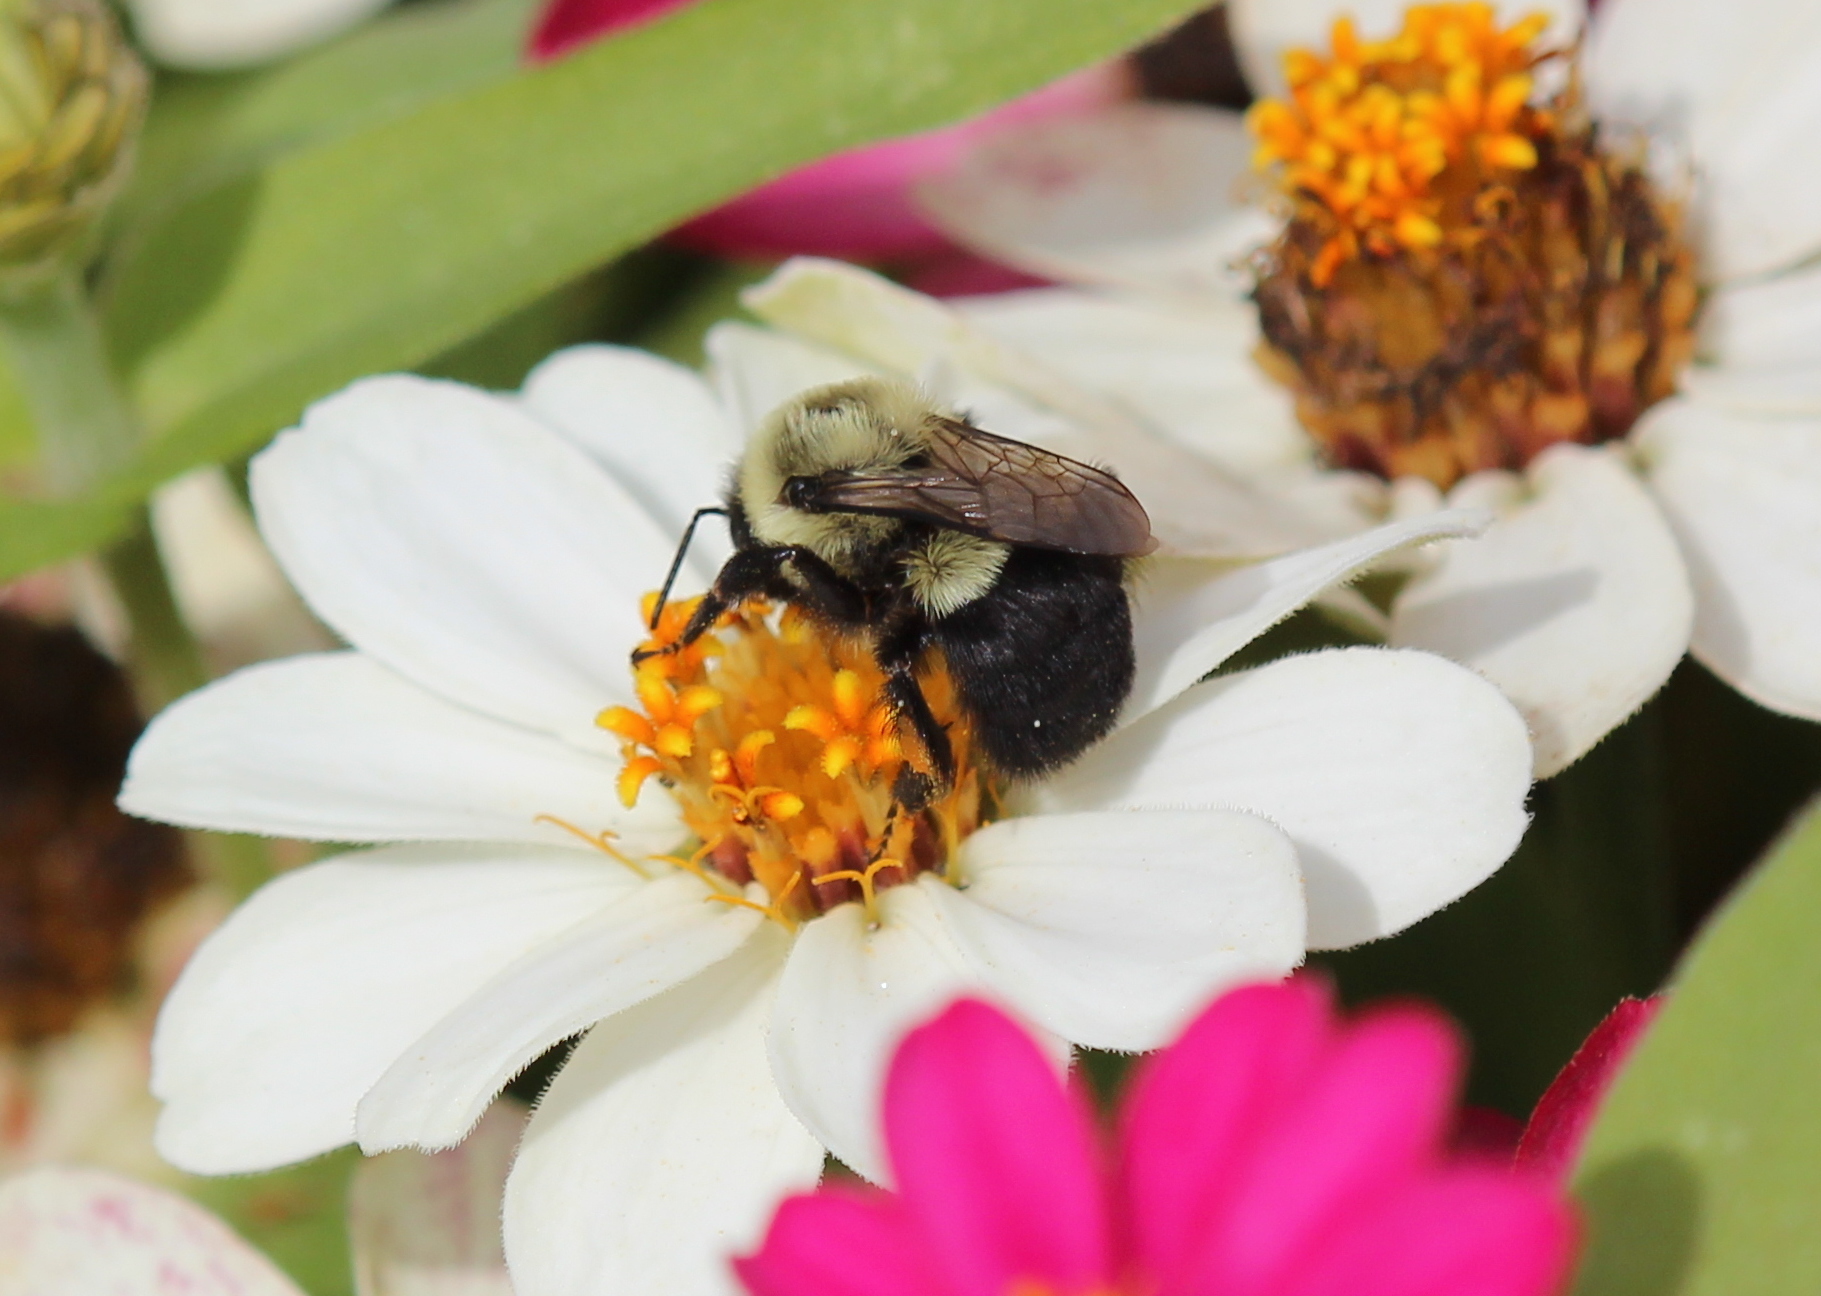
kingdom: Animalia
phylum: Arthropoda
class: Insecta
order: Hymenoptera
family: Apidae
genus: Bombus
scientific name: Bombus impatiens
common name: Common eastern bumble bee
